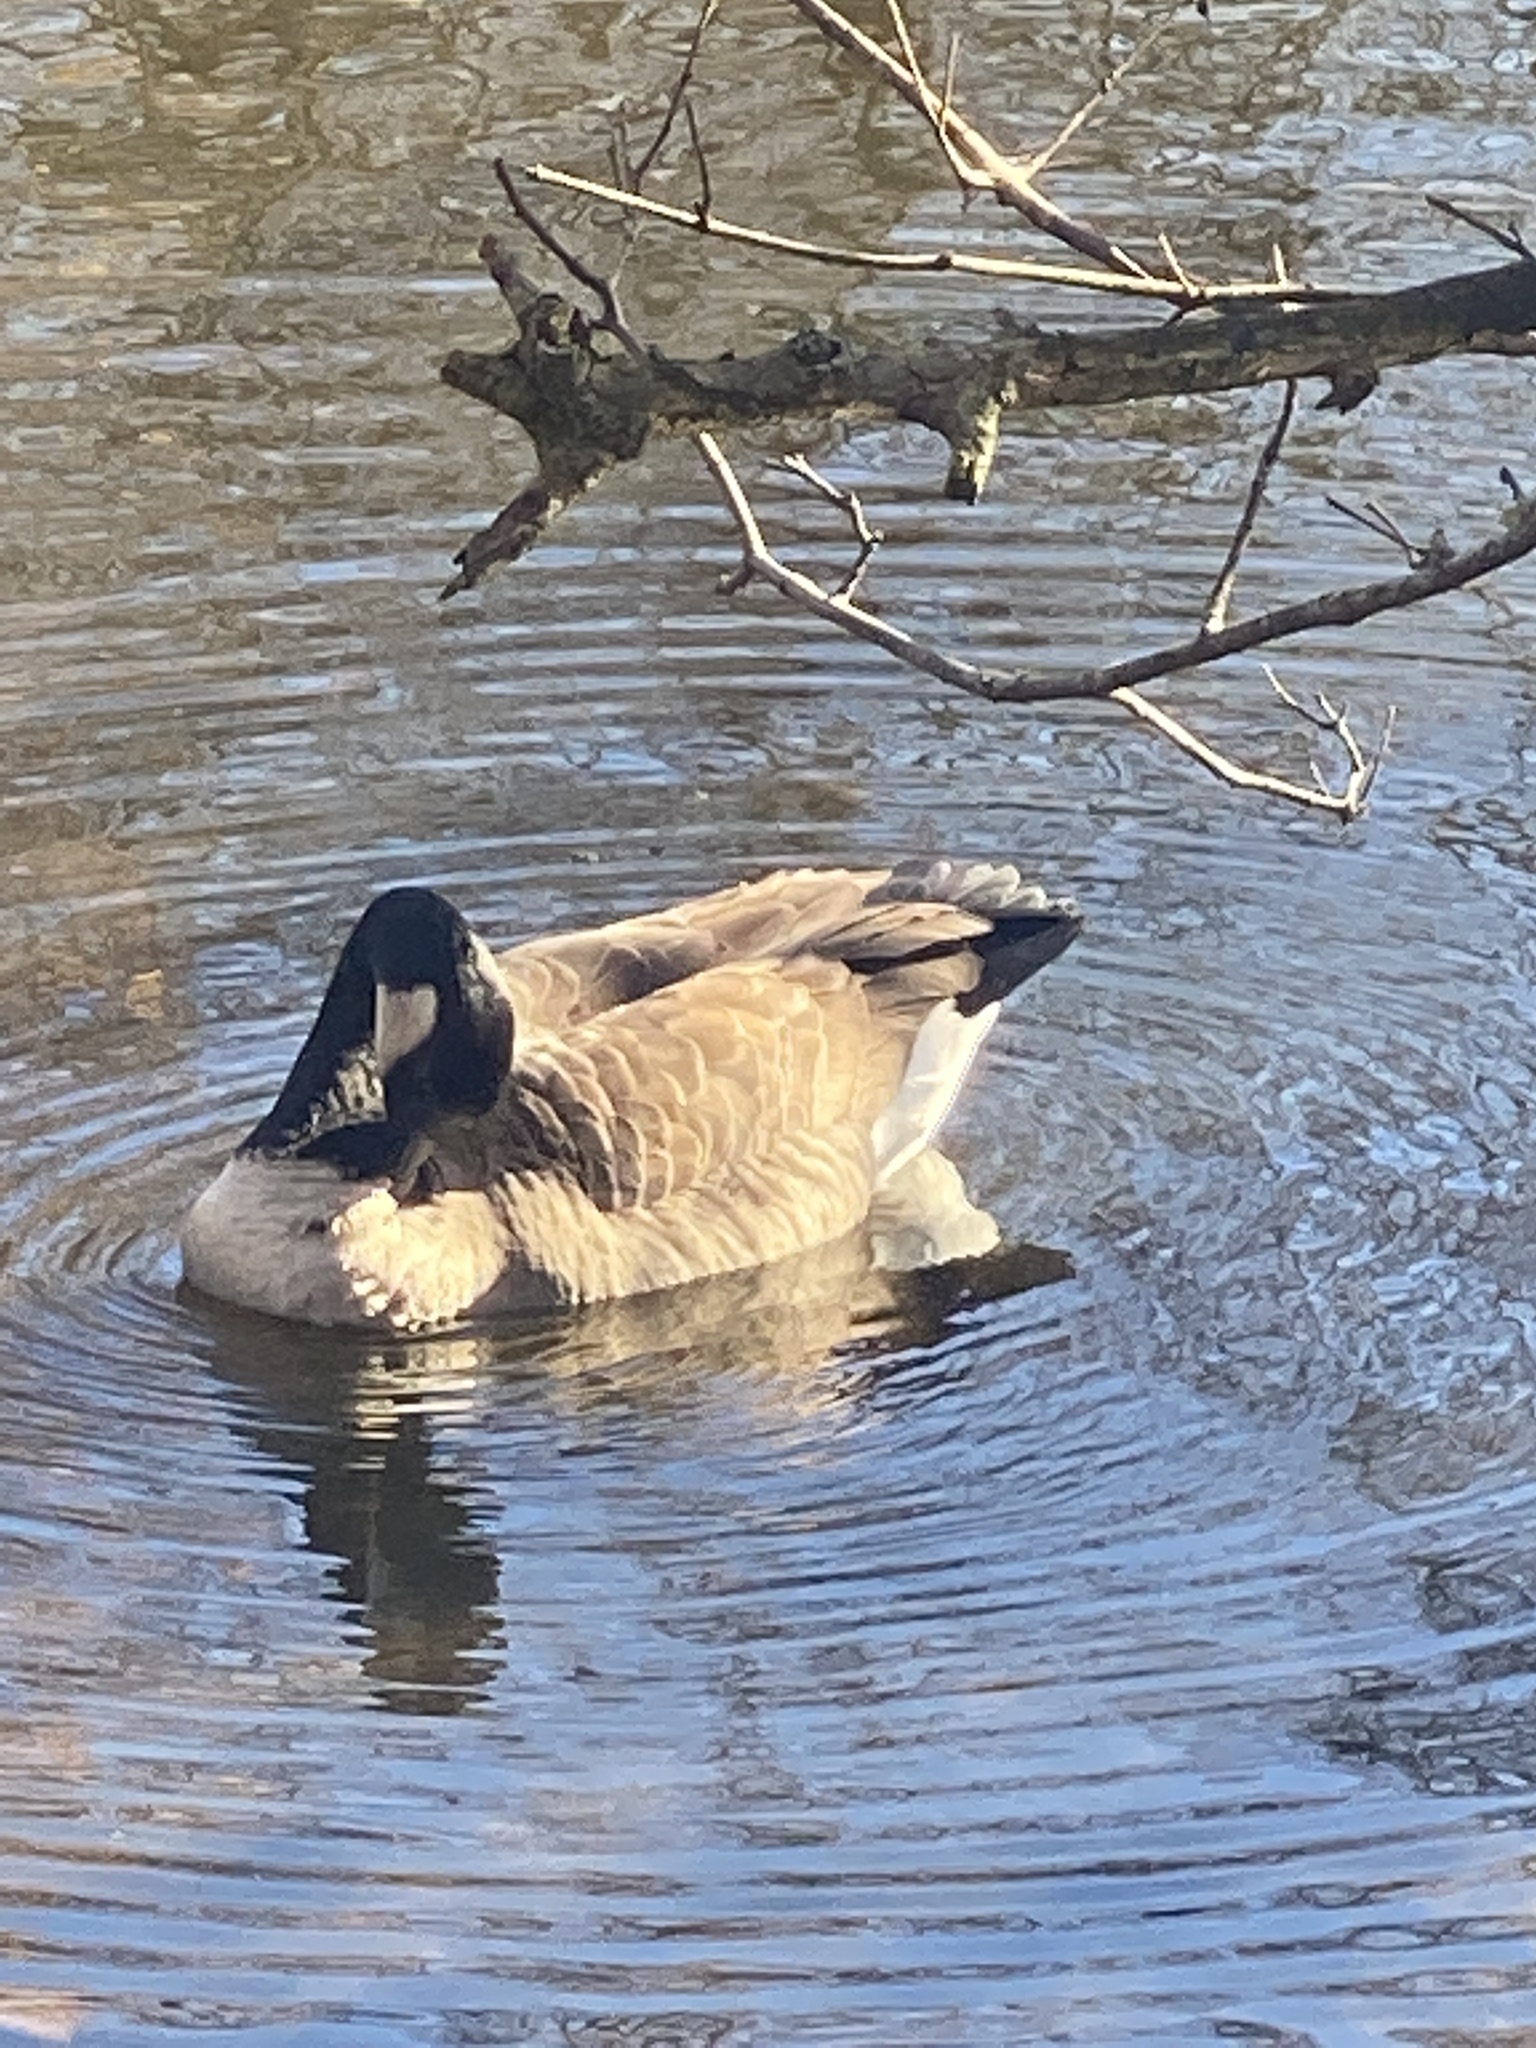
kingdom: Animalia
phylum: Chordata
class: Aves
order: Anseriformes
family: Anatidae
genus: Branta
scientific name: Branta canadensis
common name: Canada goose
